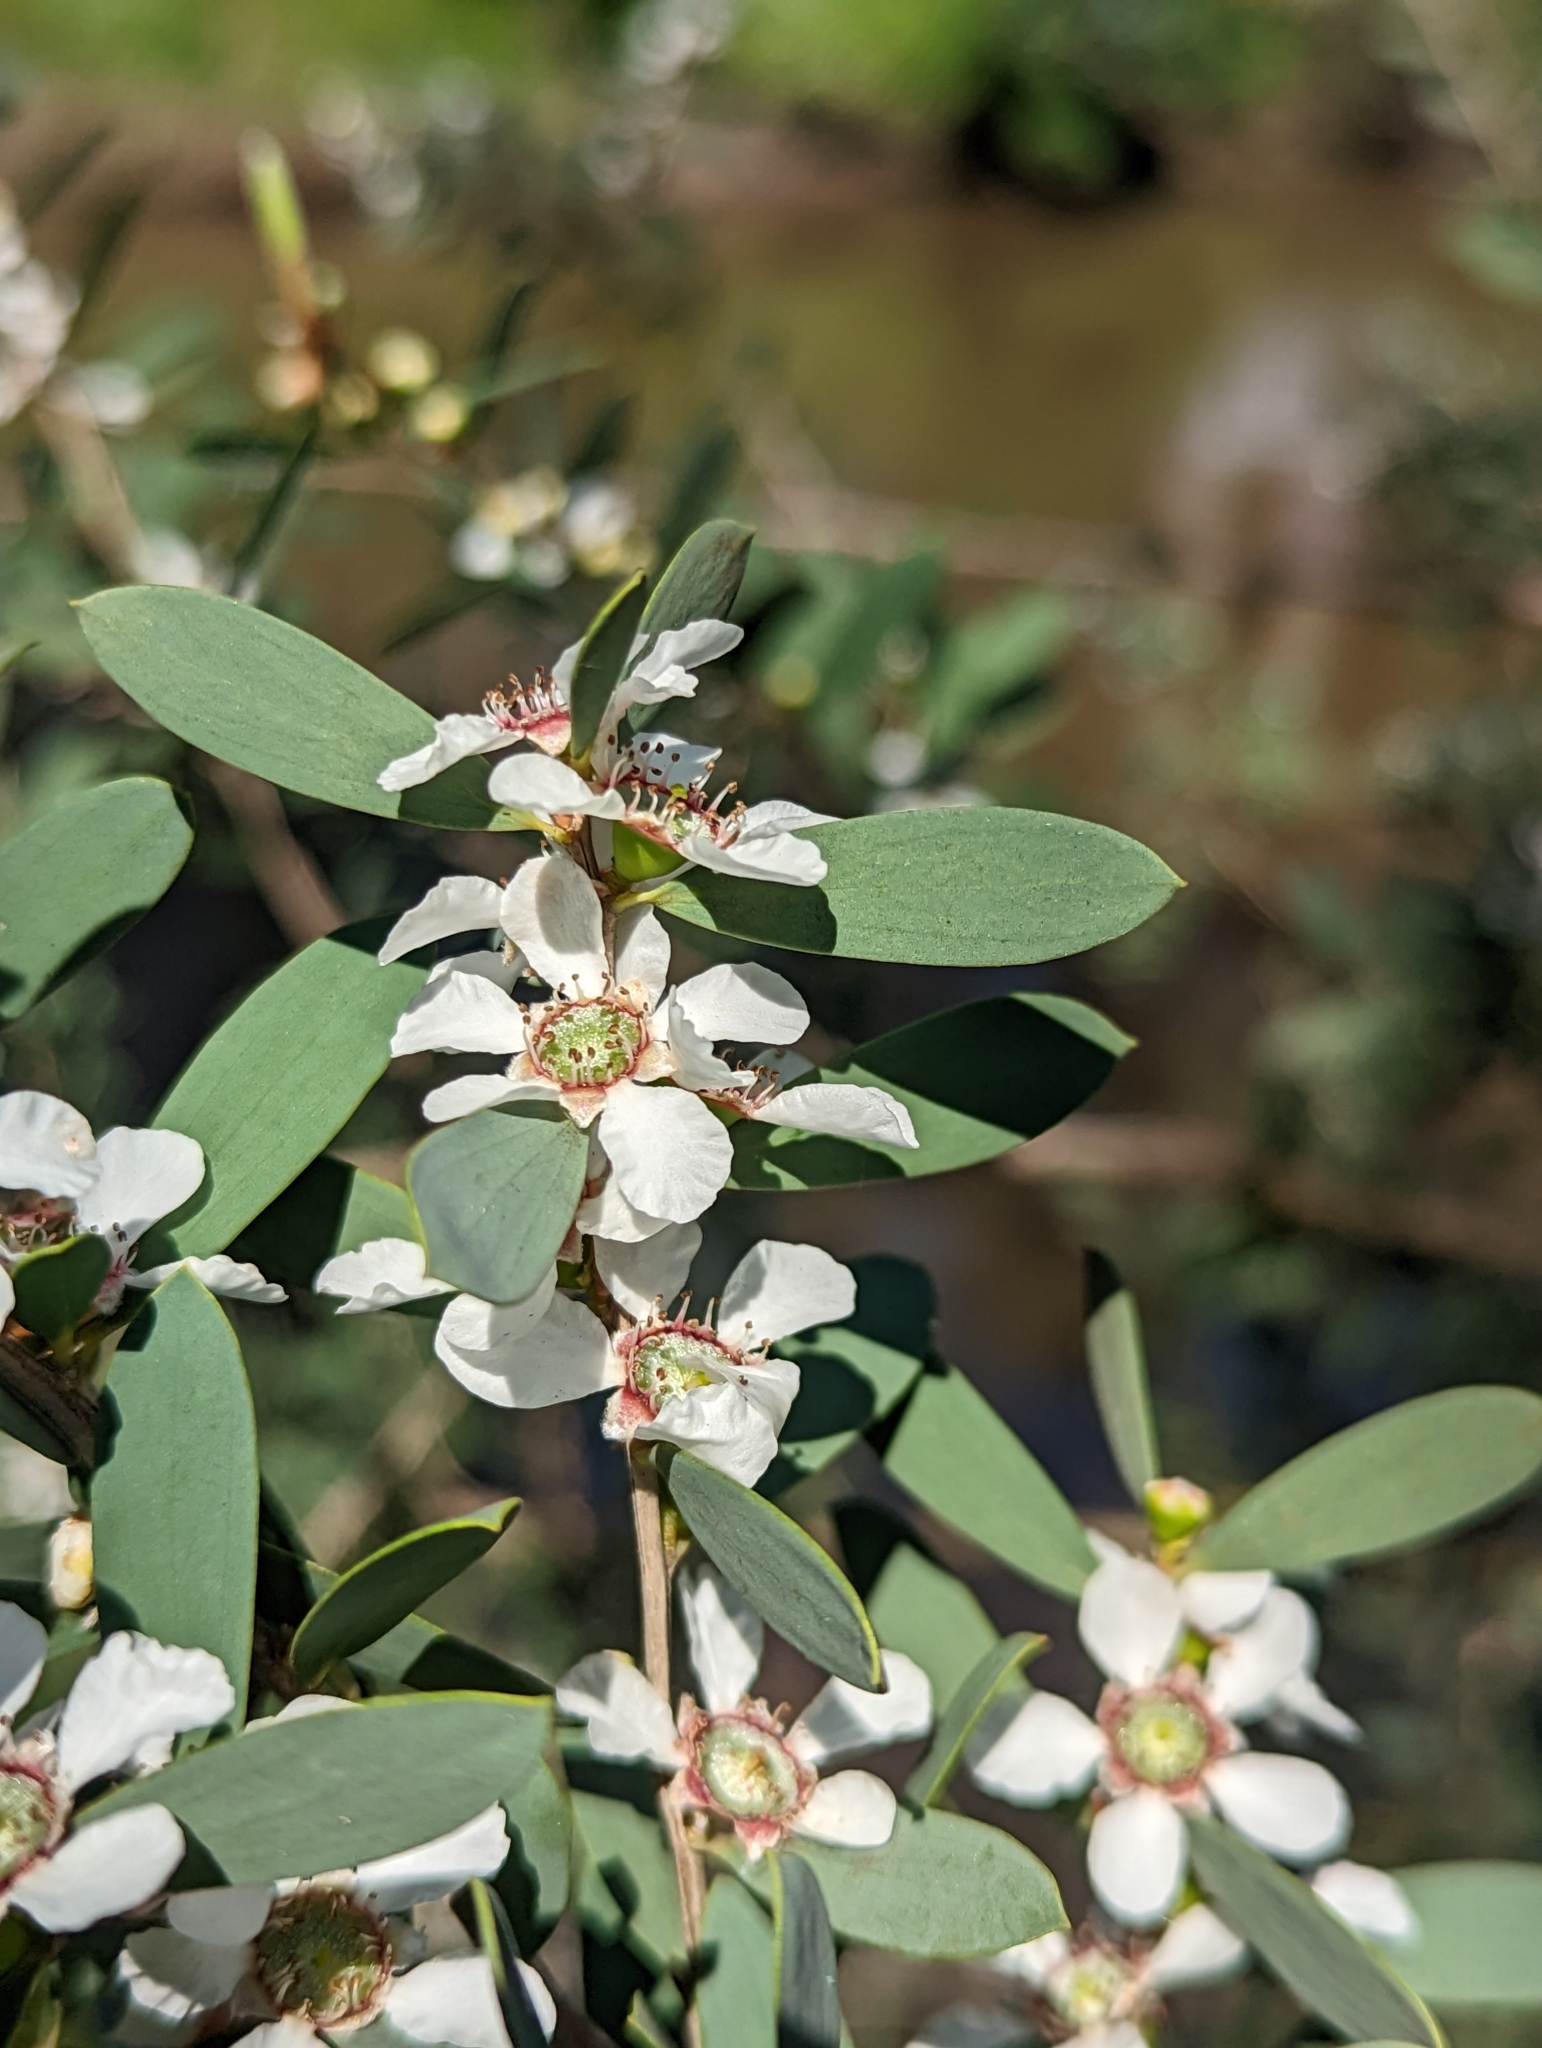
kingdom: Plantae
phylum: Tracheophyta
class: Magnoliopsida
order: Myrtales
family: Myrtaceae
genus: Leptospermum
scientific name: Leptospermum laevigatum
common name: Australian teatree
